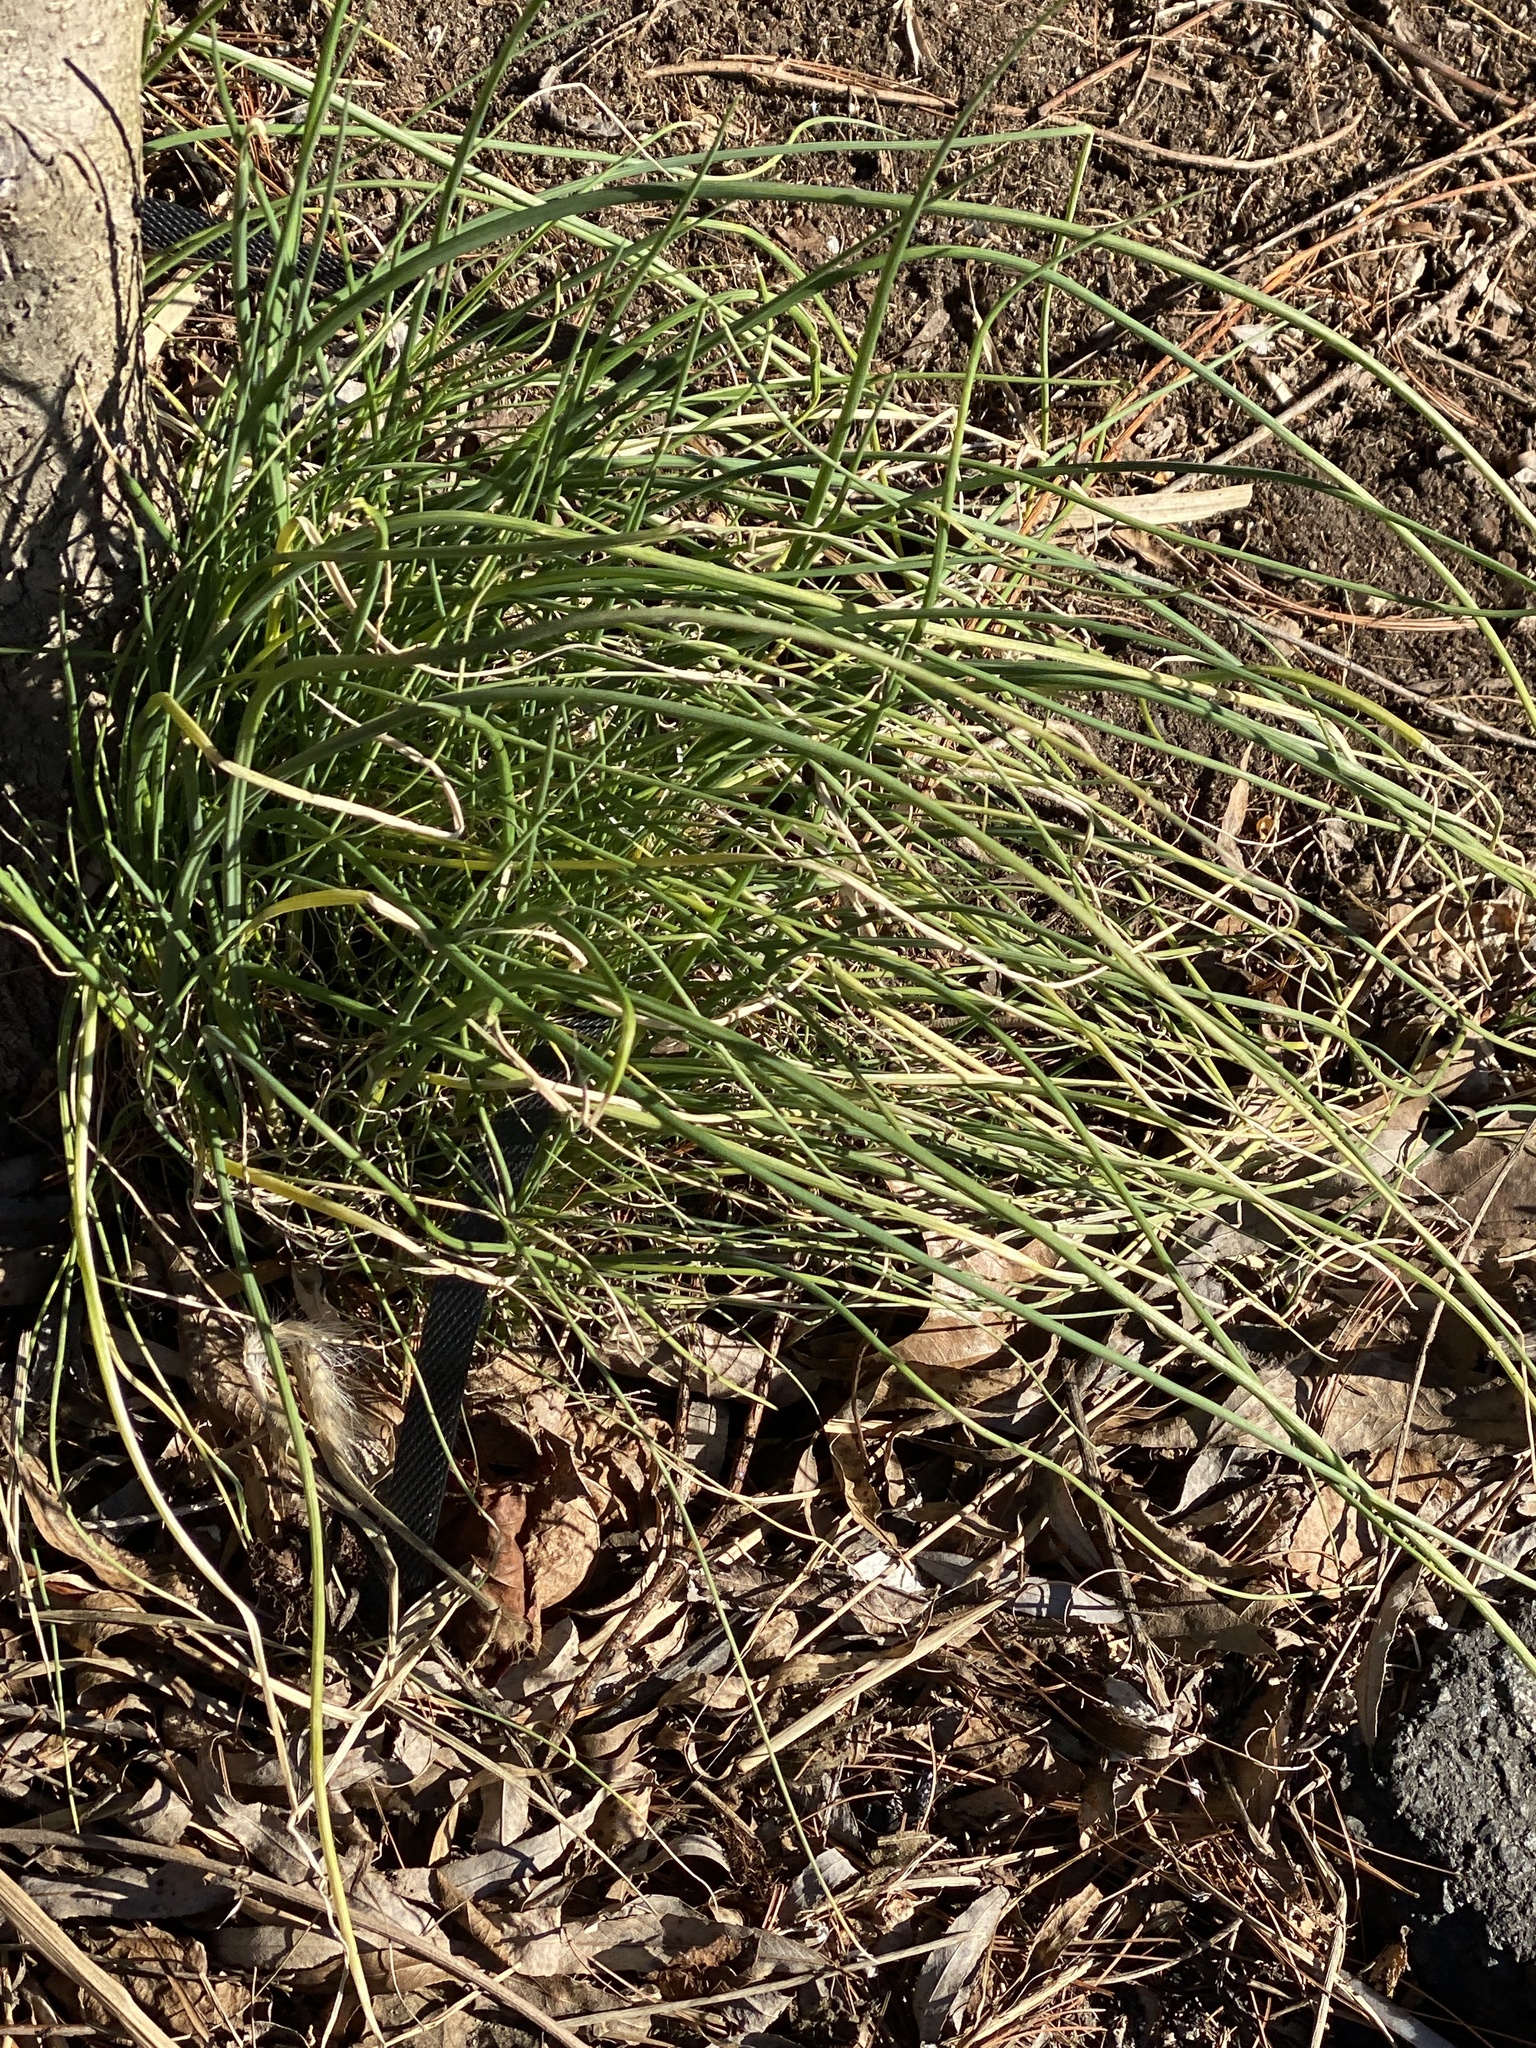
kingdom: Plantae
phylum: Tracheophyta
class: Liliopsida
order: Asparagales
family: Amaryllidaceae
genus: Allium
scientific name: Allium vineale
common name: Crow garlic
